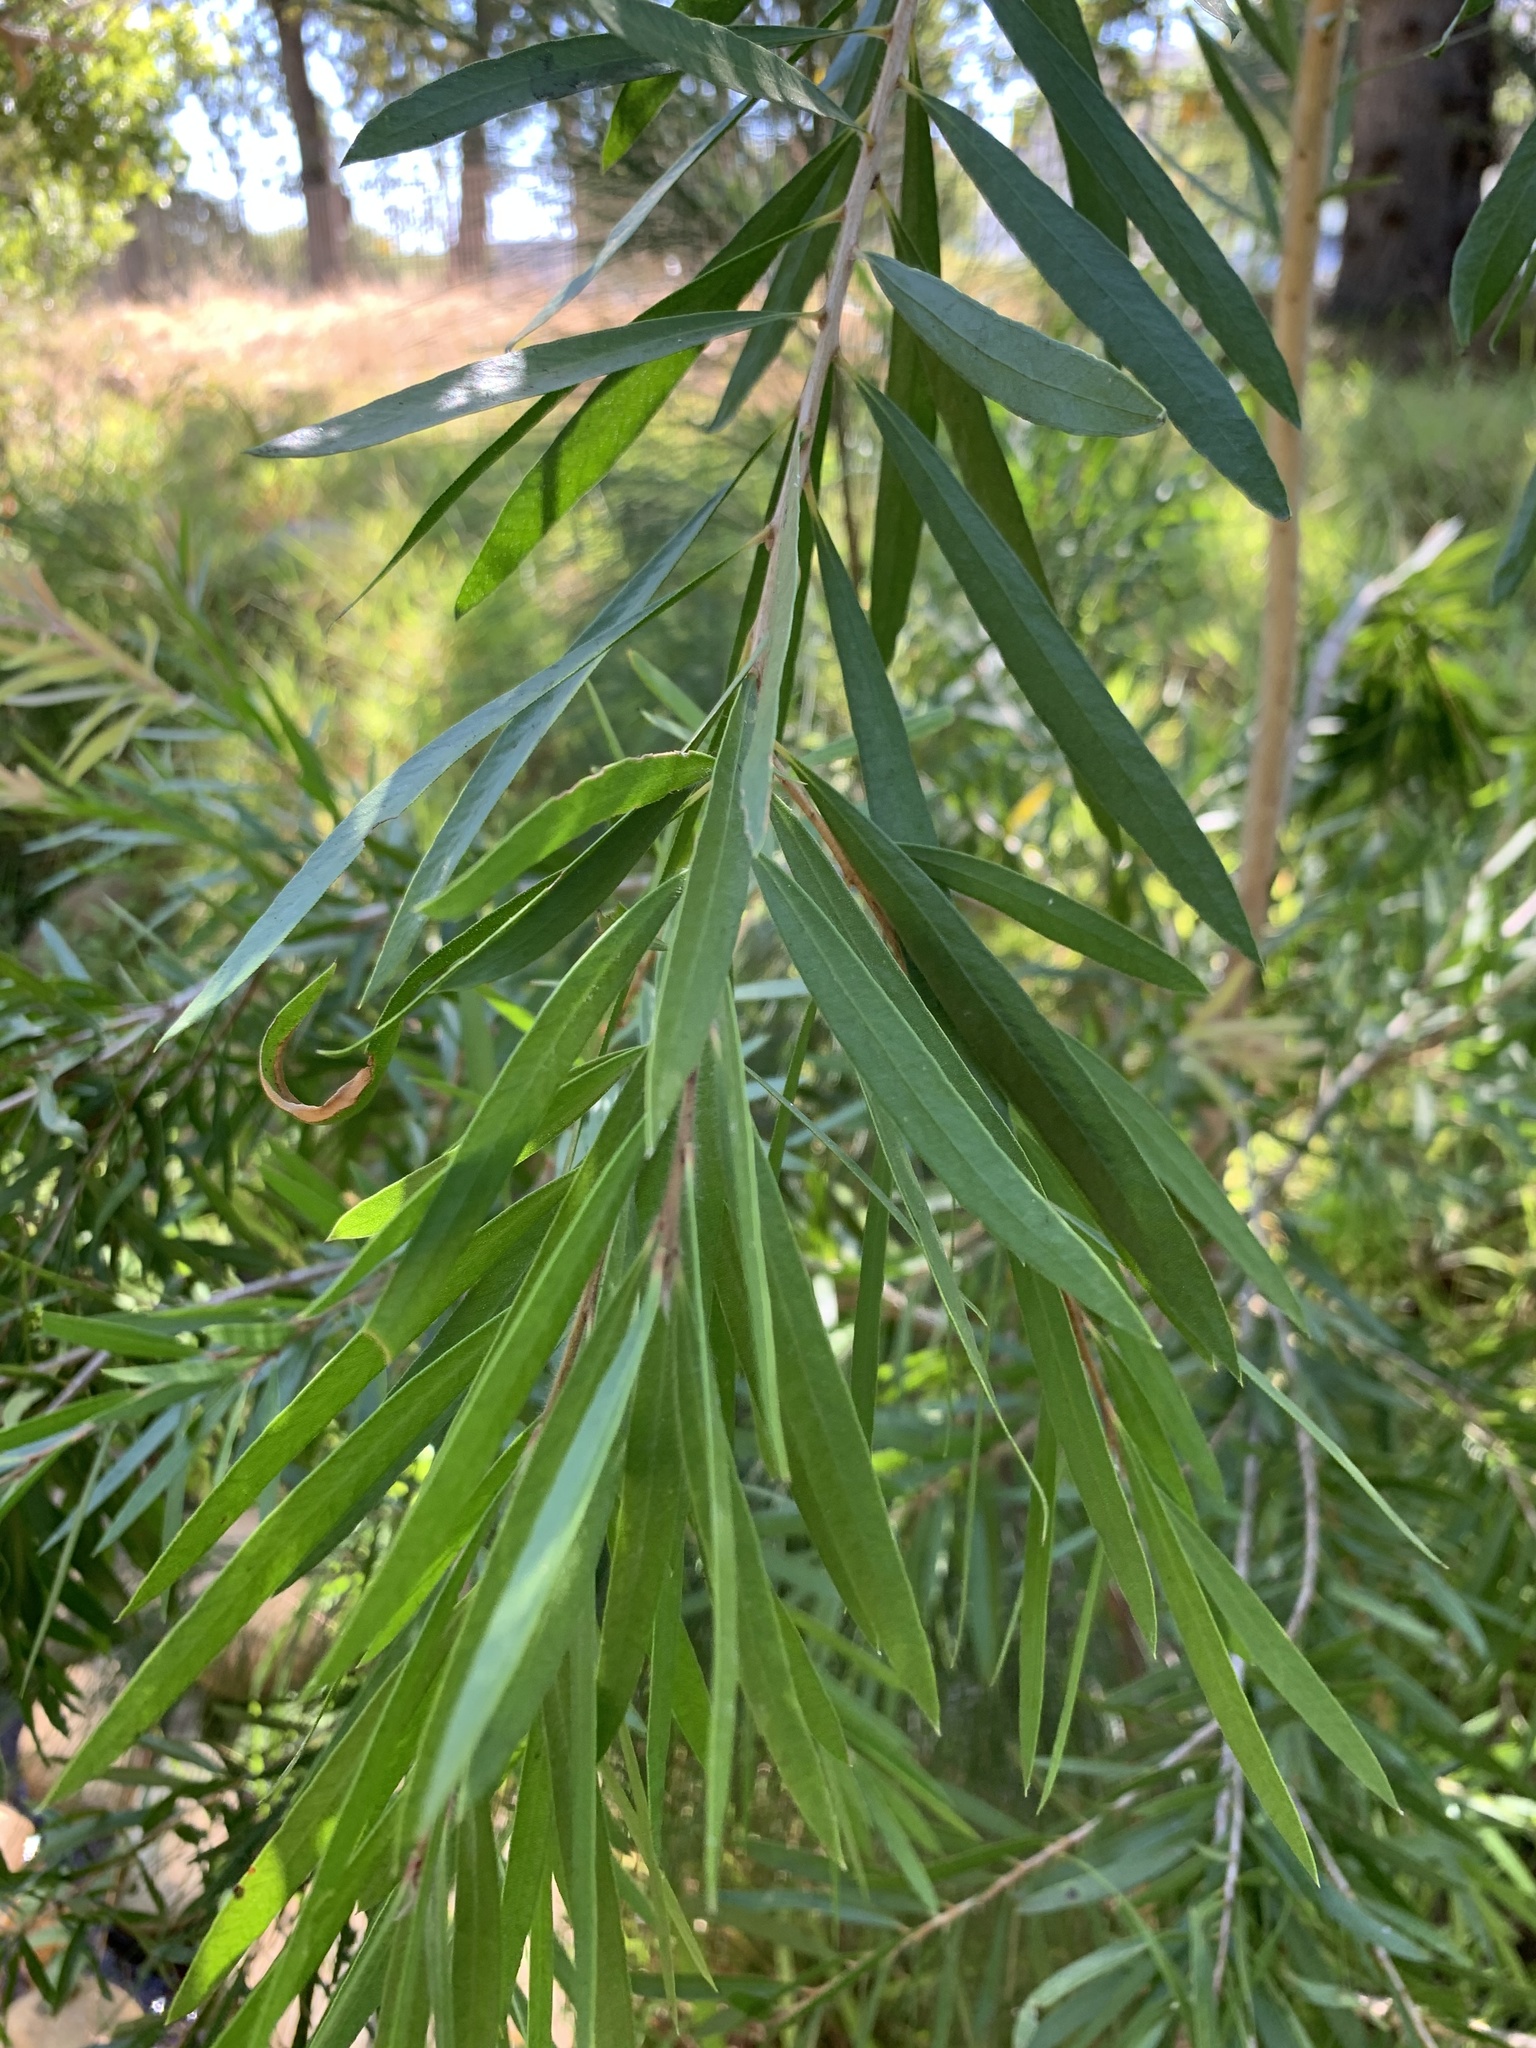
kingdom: Plantae
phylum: Tracheophyta
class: Magnoliopsida
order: Myrtales
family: Myrtaceae
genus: Callistemon
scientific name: Callistemon viminalis
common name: Drooping bottlebrush
